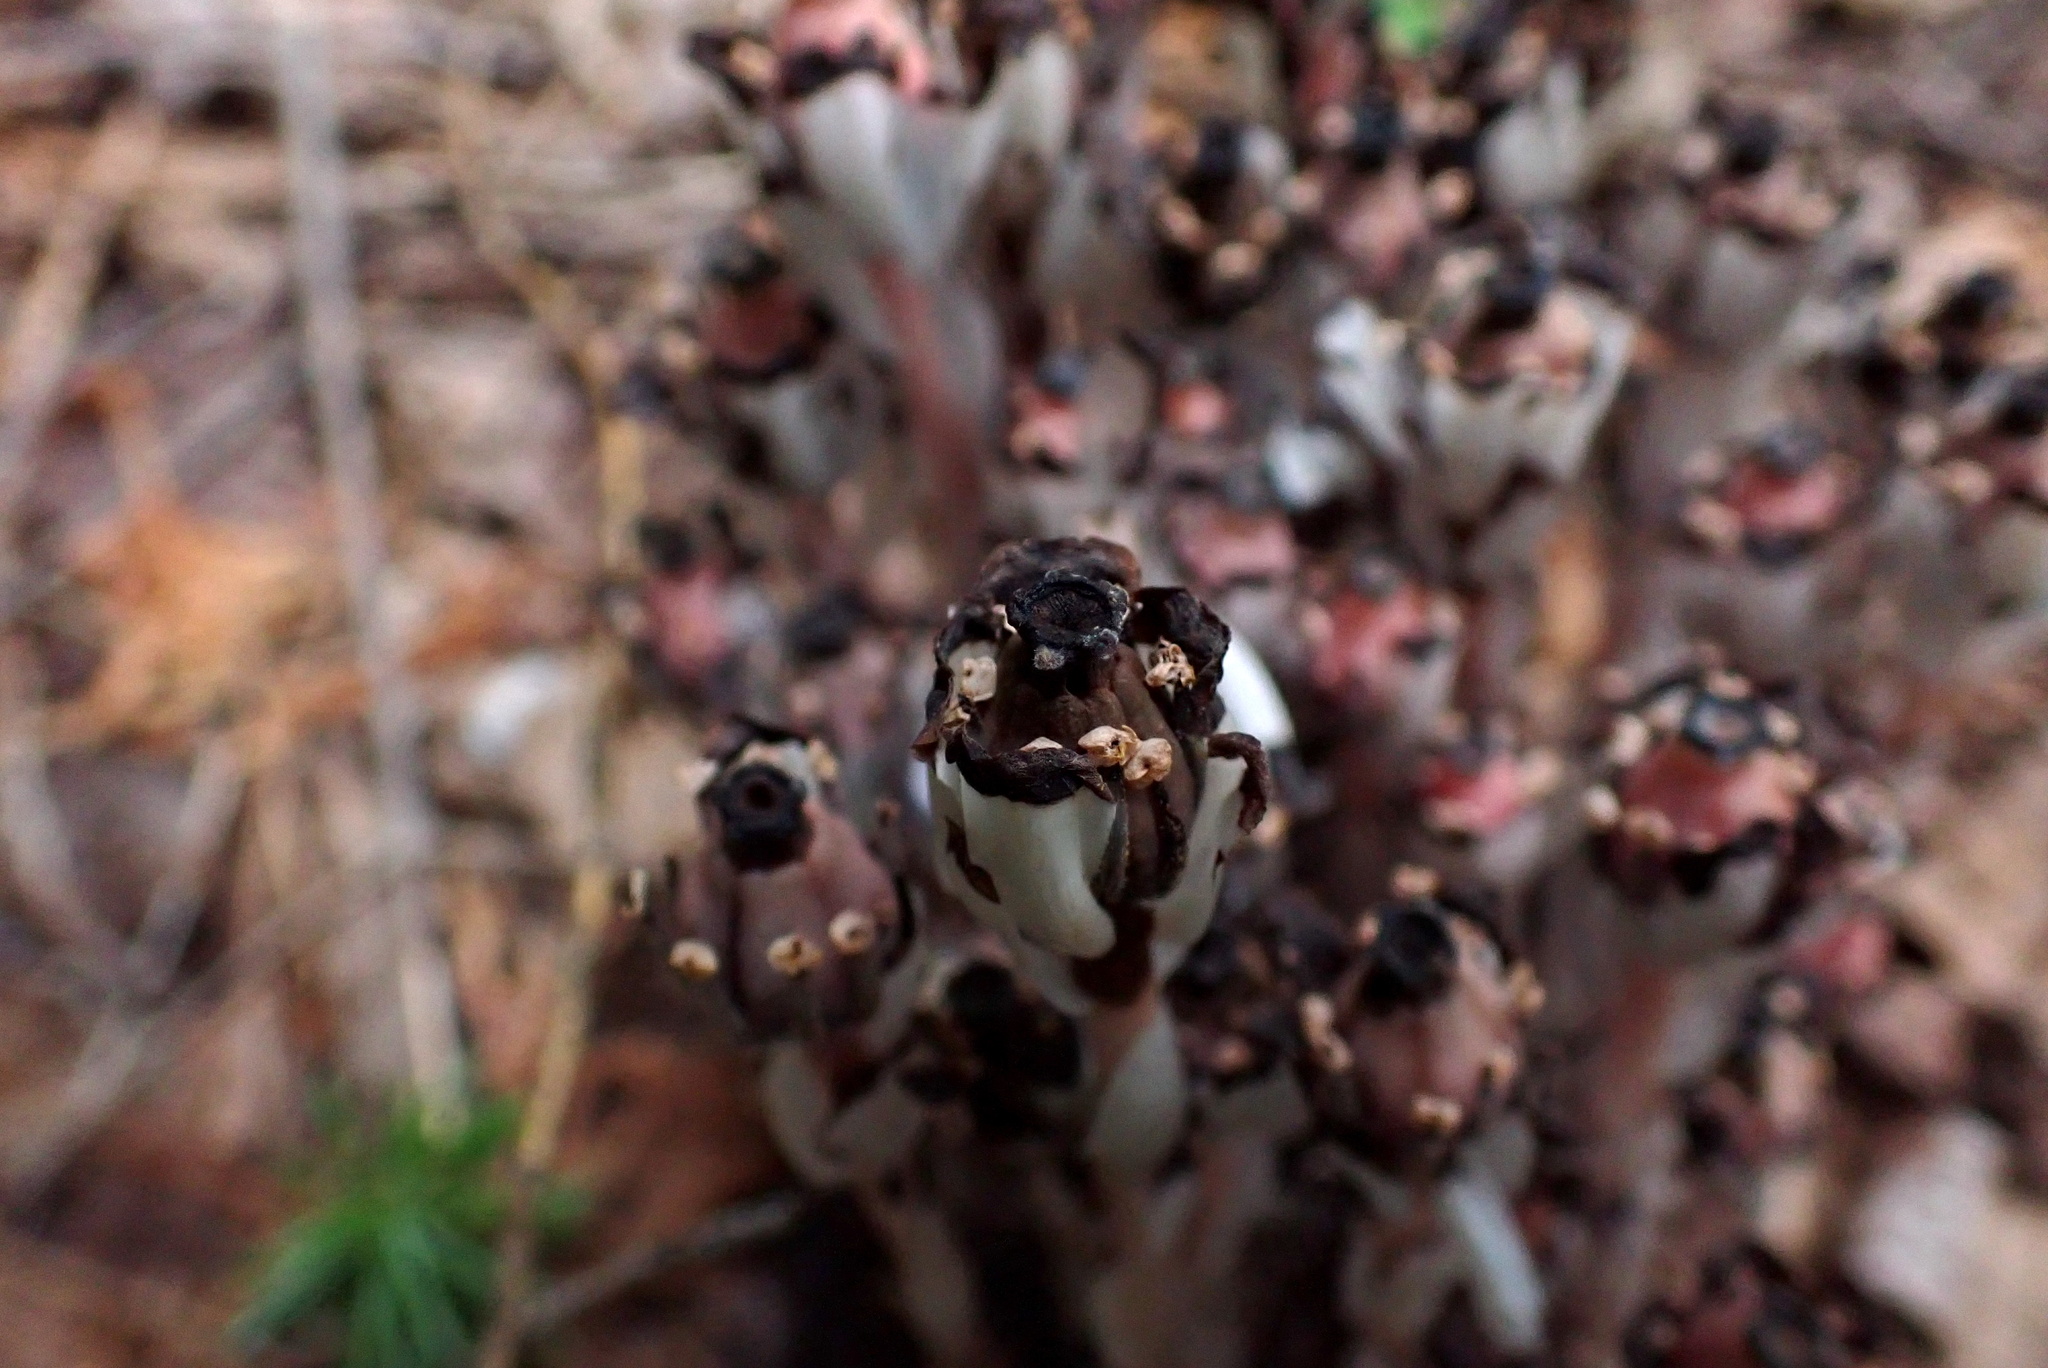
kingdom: Plantae
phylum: Tracheophyta
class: Magnoliopsida
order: Ericales
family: Ericaceae
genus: Monotropa
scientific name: Monotropa uniflora
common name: Convulsion root
